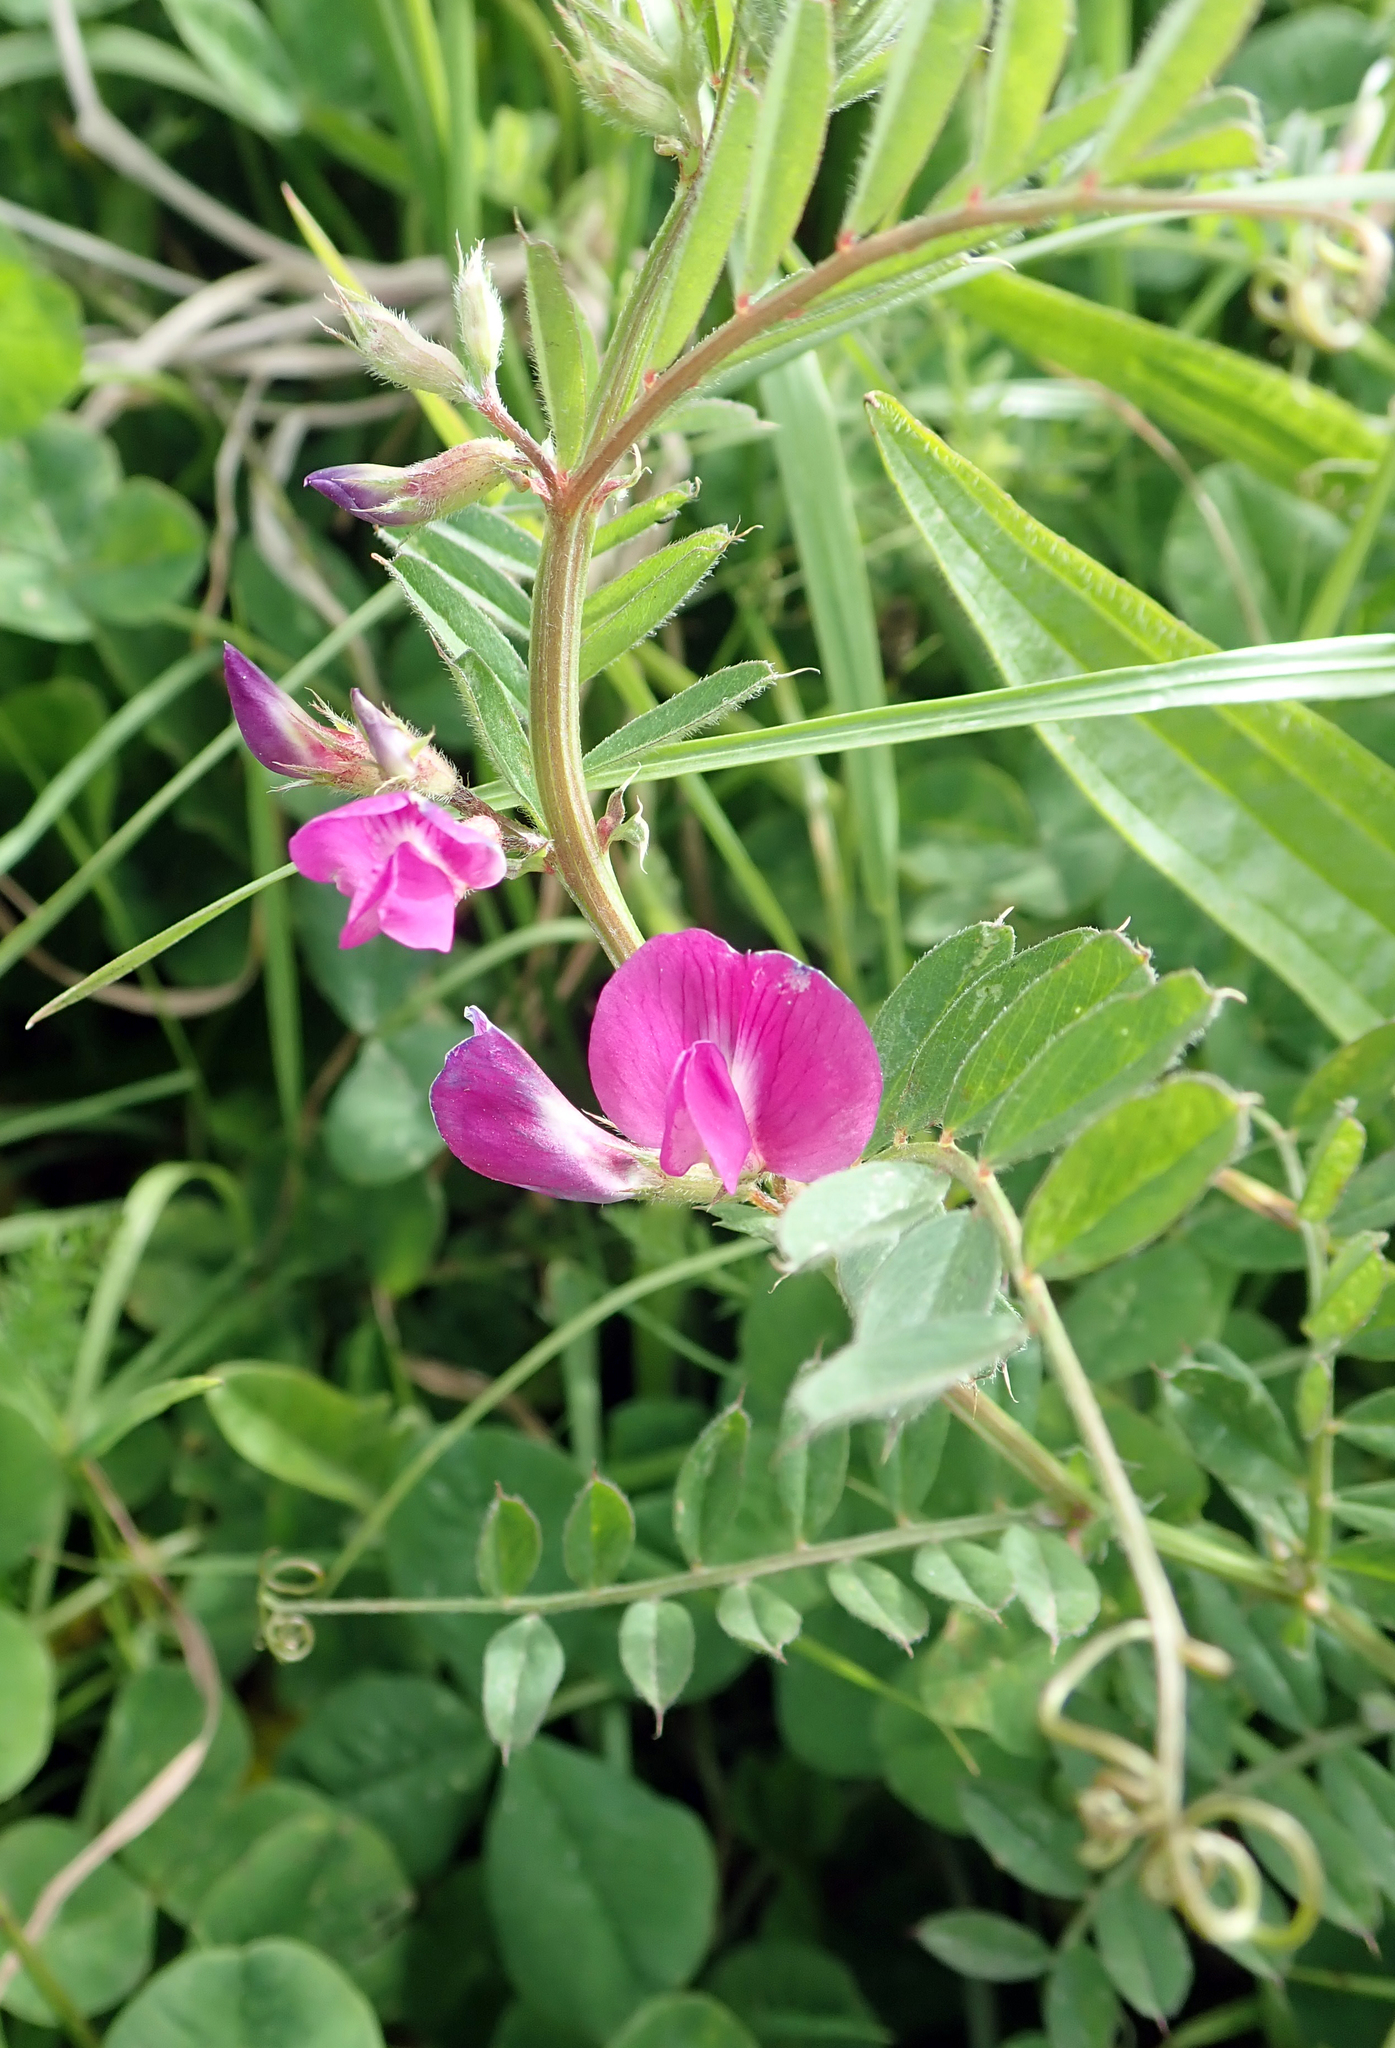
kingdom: Plantae
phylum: Tracheophyta
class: Magnoliopsida
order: Fabales
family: Fabaceae
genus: Vicia
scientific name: Vicia sativa
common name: Garden vetch
